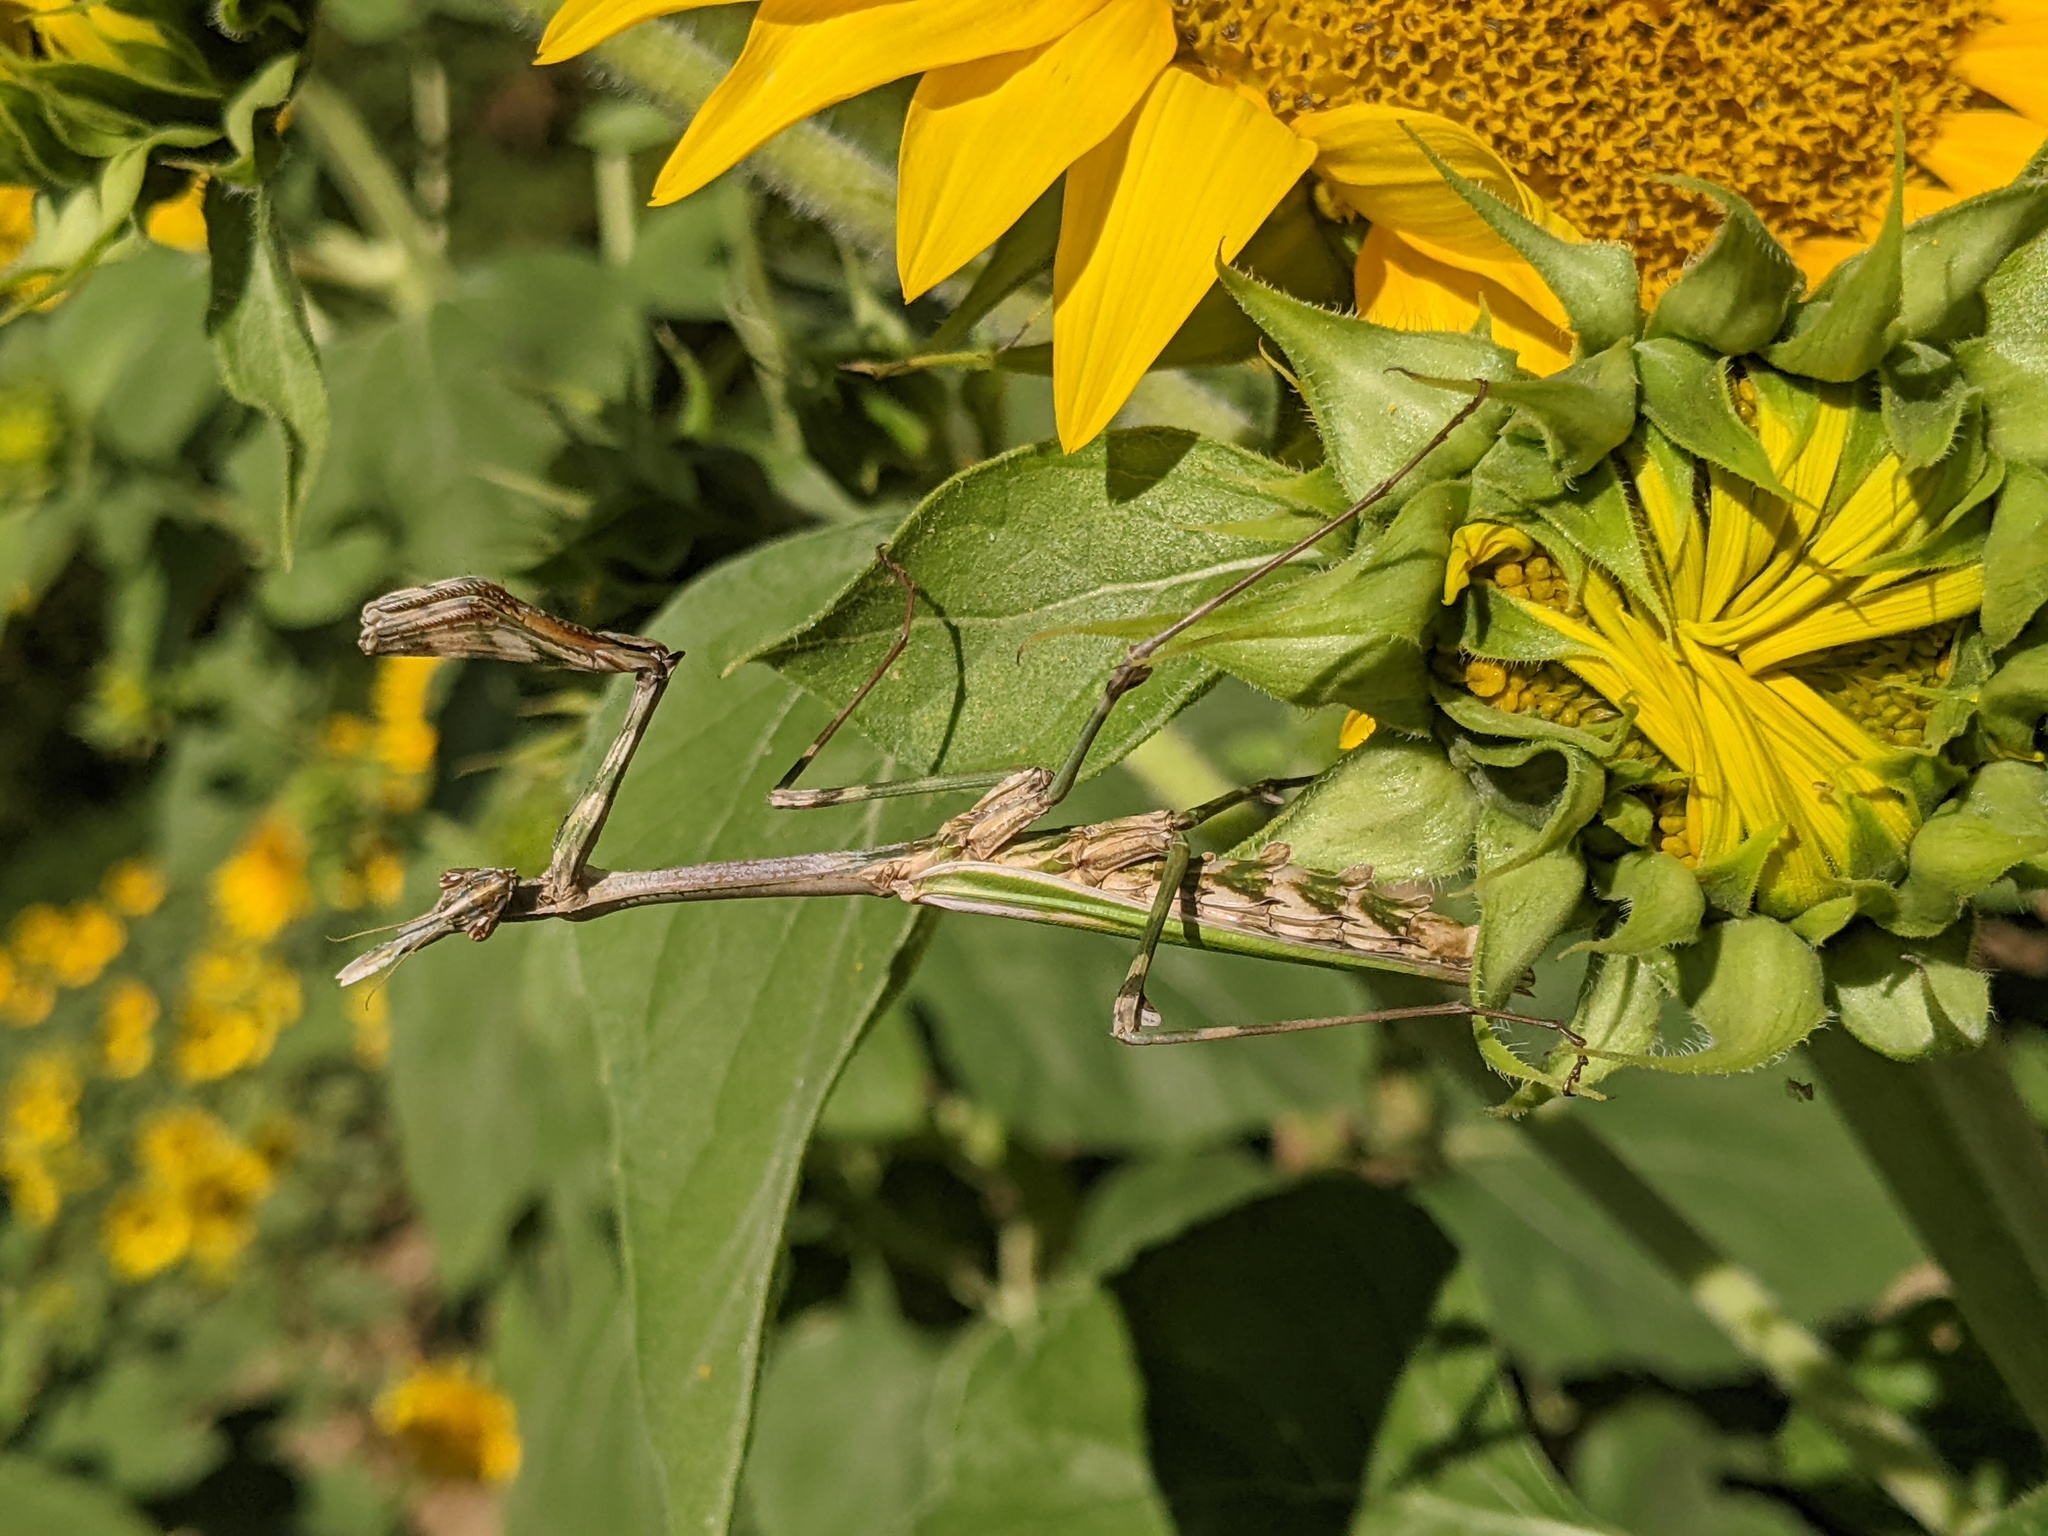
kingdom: Animalia
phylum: Arthropoda
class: Insecta
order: Mantodea
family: Empusidae
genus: Empusa
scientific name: Empusa pennata
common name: Conehead mantis
